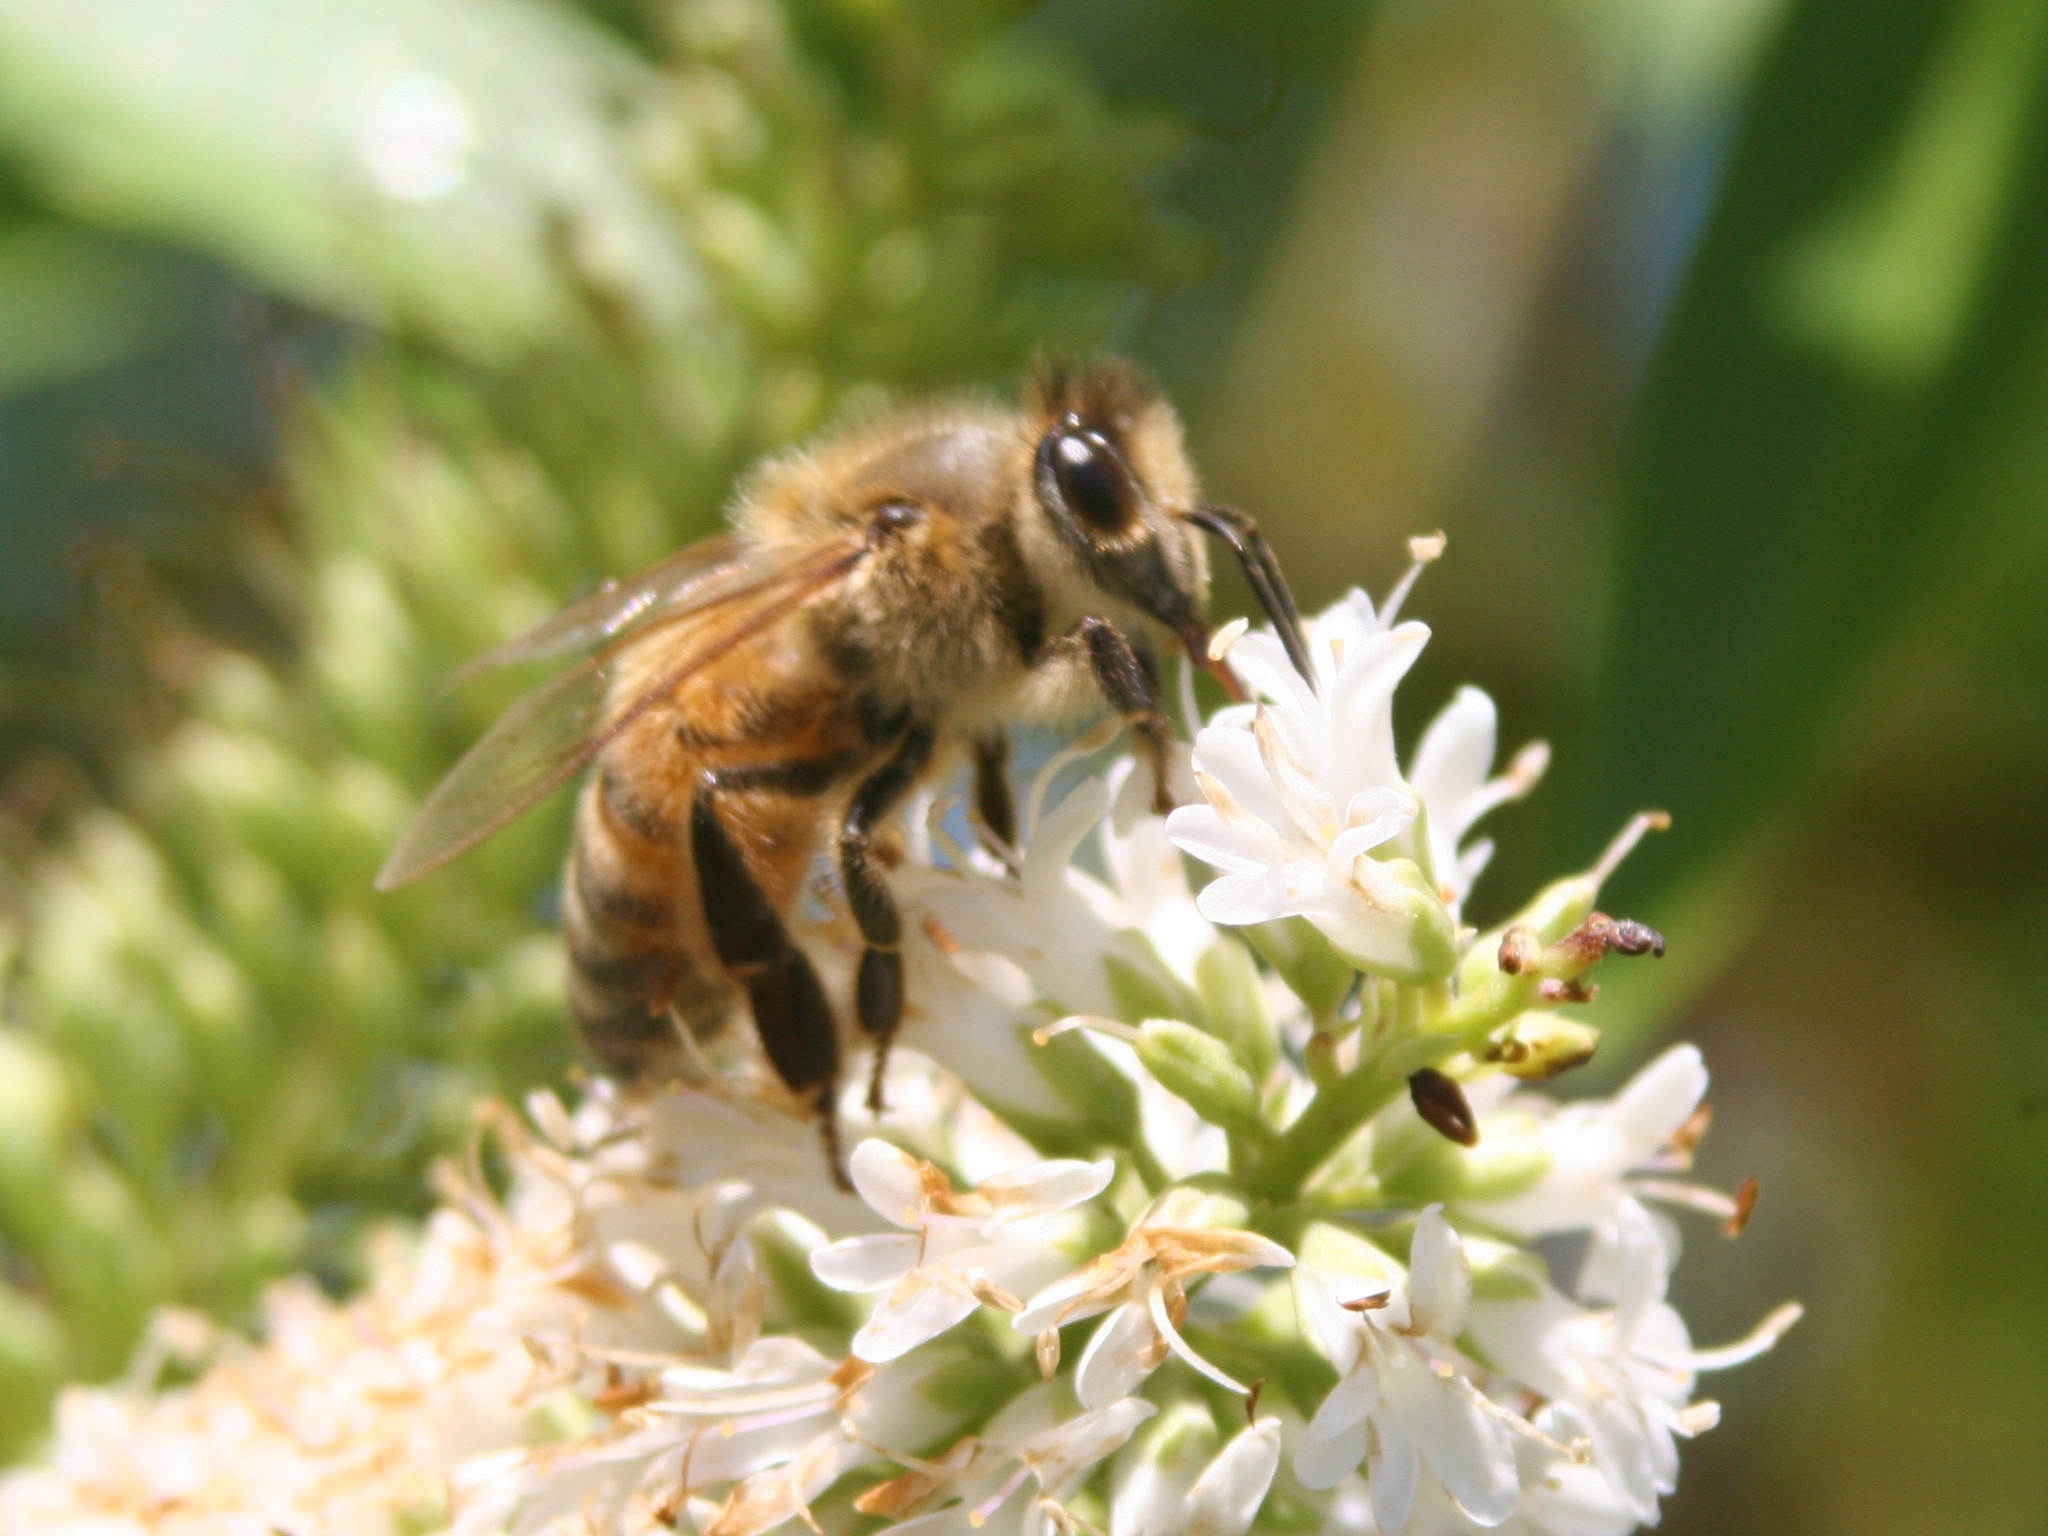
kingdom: Animalia
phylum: Arthropoda
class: Insecta
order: Hymenoptera
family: Apidae
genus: Apis
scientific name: Apis mellifera
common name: Honey bee
